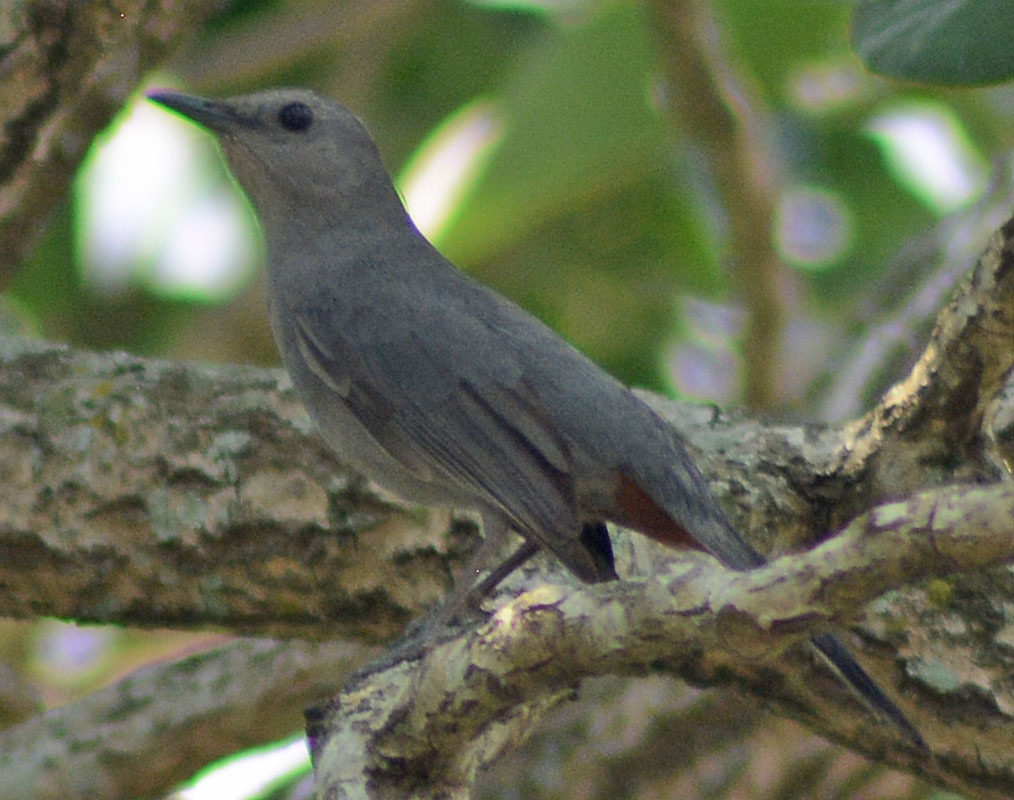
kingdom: Animalia
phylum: Chordata
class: Aves
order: Passeriformes
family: Mimidae
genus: Dumetella
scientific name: Dumetella carolinensis
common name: Gray catbird
